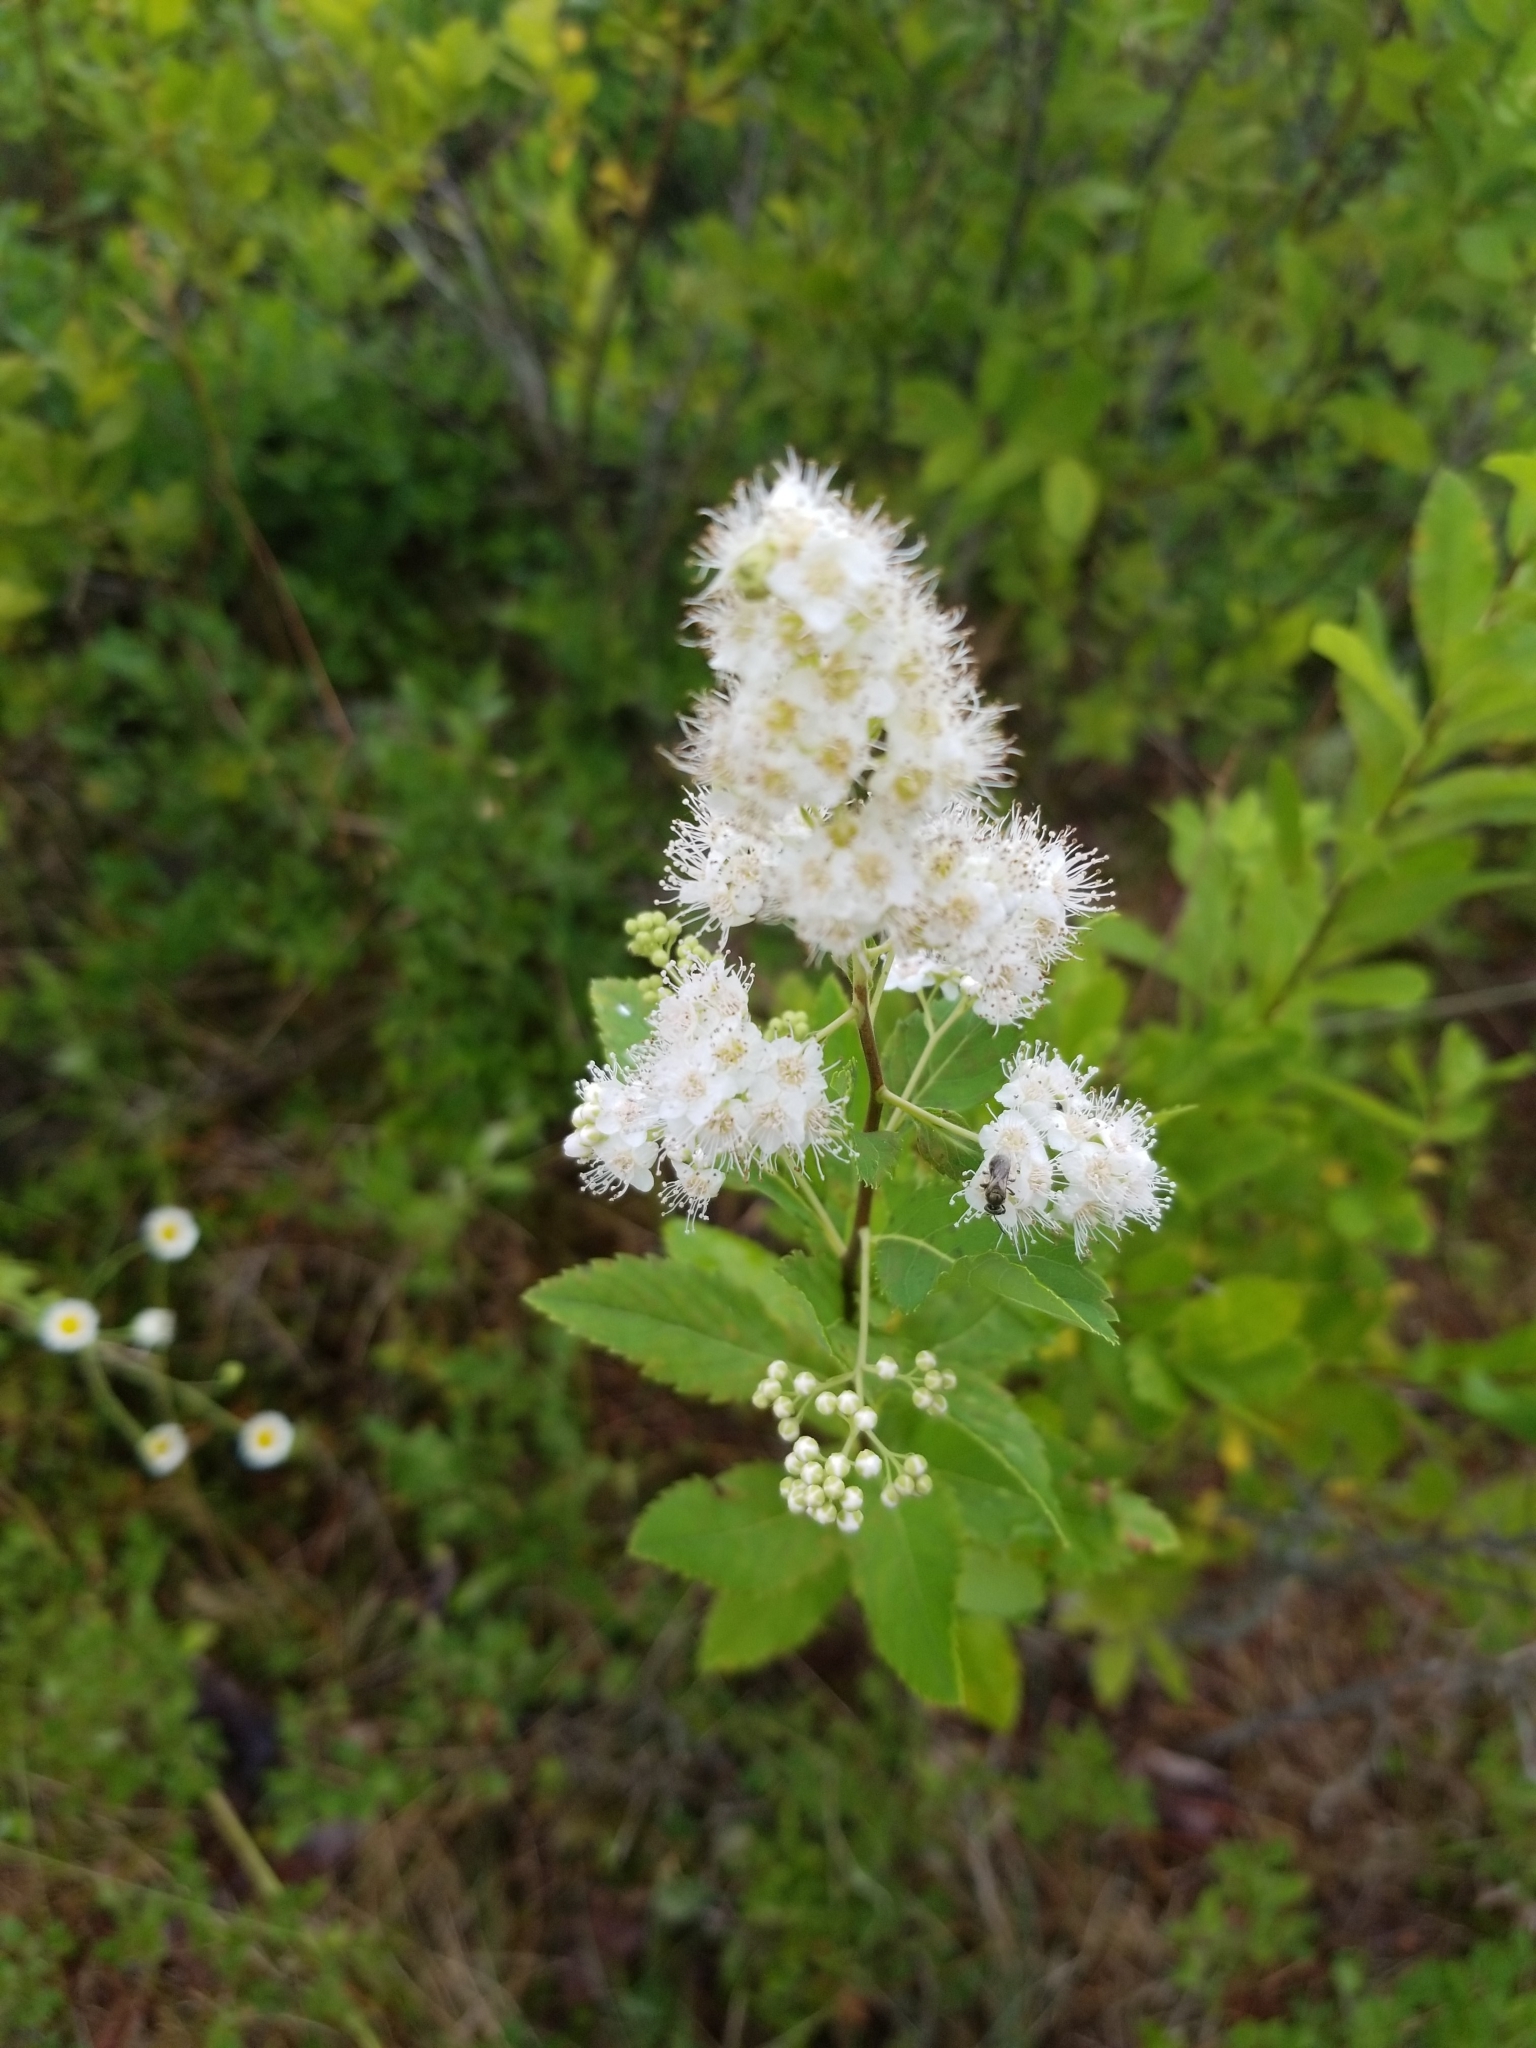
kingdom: Plantae
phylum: Tracheophyta
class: Magnoliopsida
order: Rosales
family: Rosaceae
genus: Spiraea
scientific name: Spiraea alba
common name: Pale bridewort
